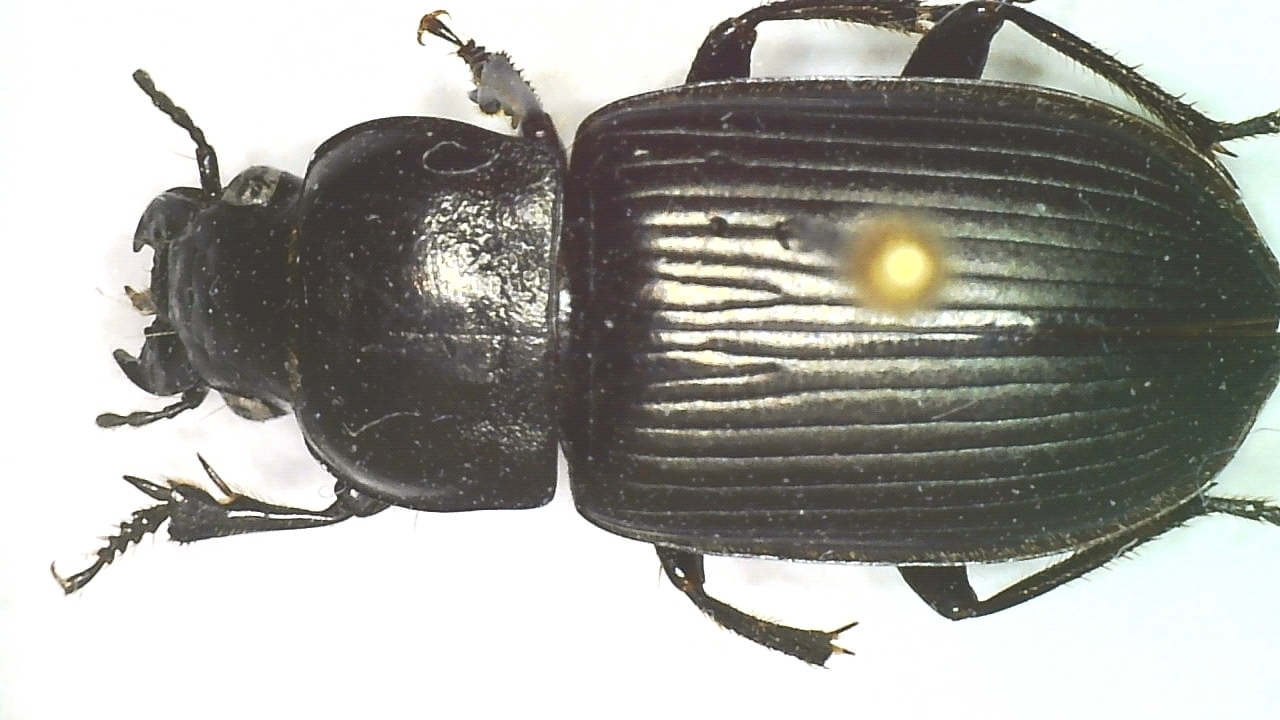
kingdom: Animalia
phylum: Arthropoda
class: Insecta
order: Coleoptera
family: Carabidae
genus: Anisodactylus
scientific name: Anisodactylus signatus
